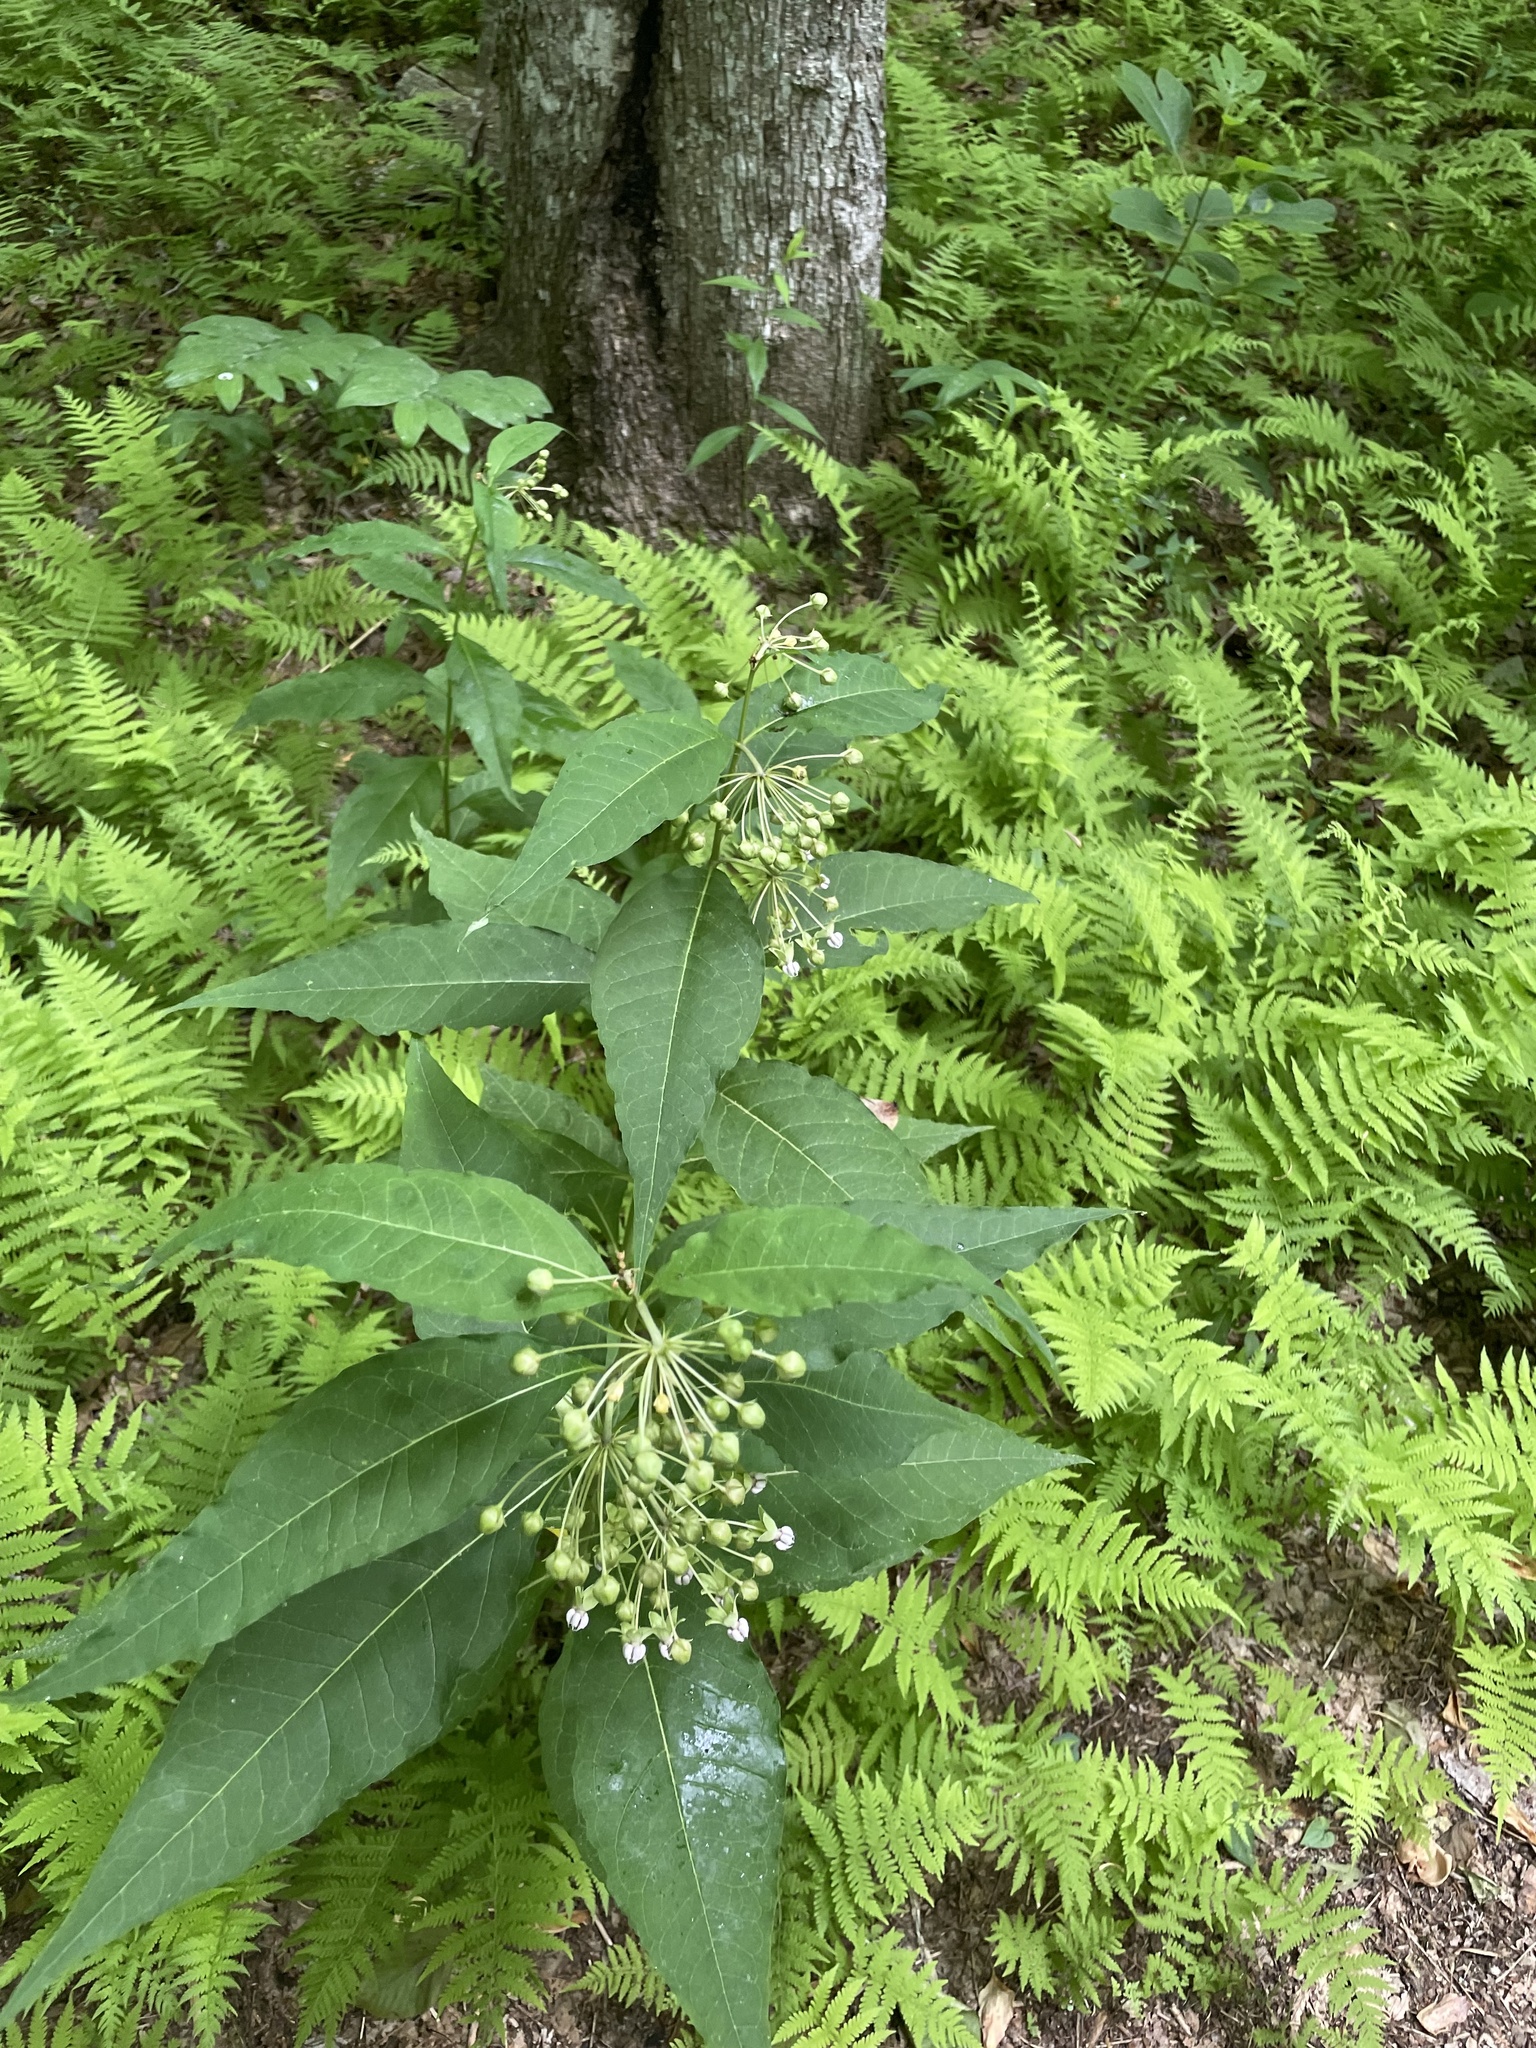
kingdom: Plantae
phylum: Tracheophyta
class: Magnoliopsida
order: Gentianales
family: Apocynaceae
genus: Asclepias
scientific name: Asclepias exaltata
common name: Poke milkweed
